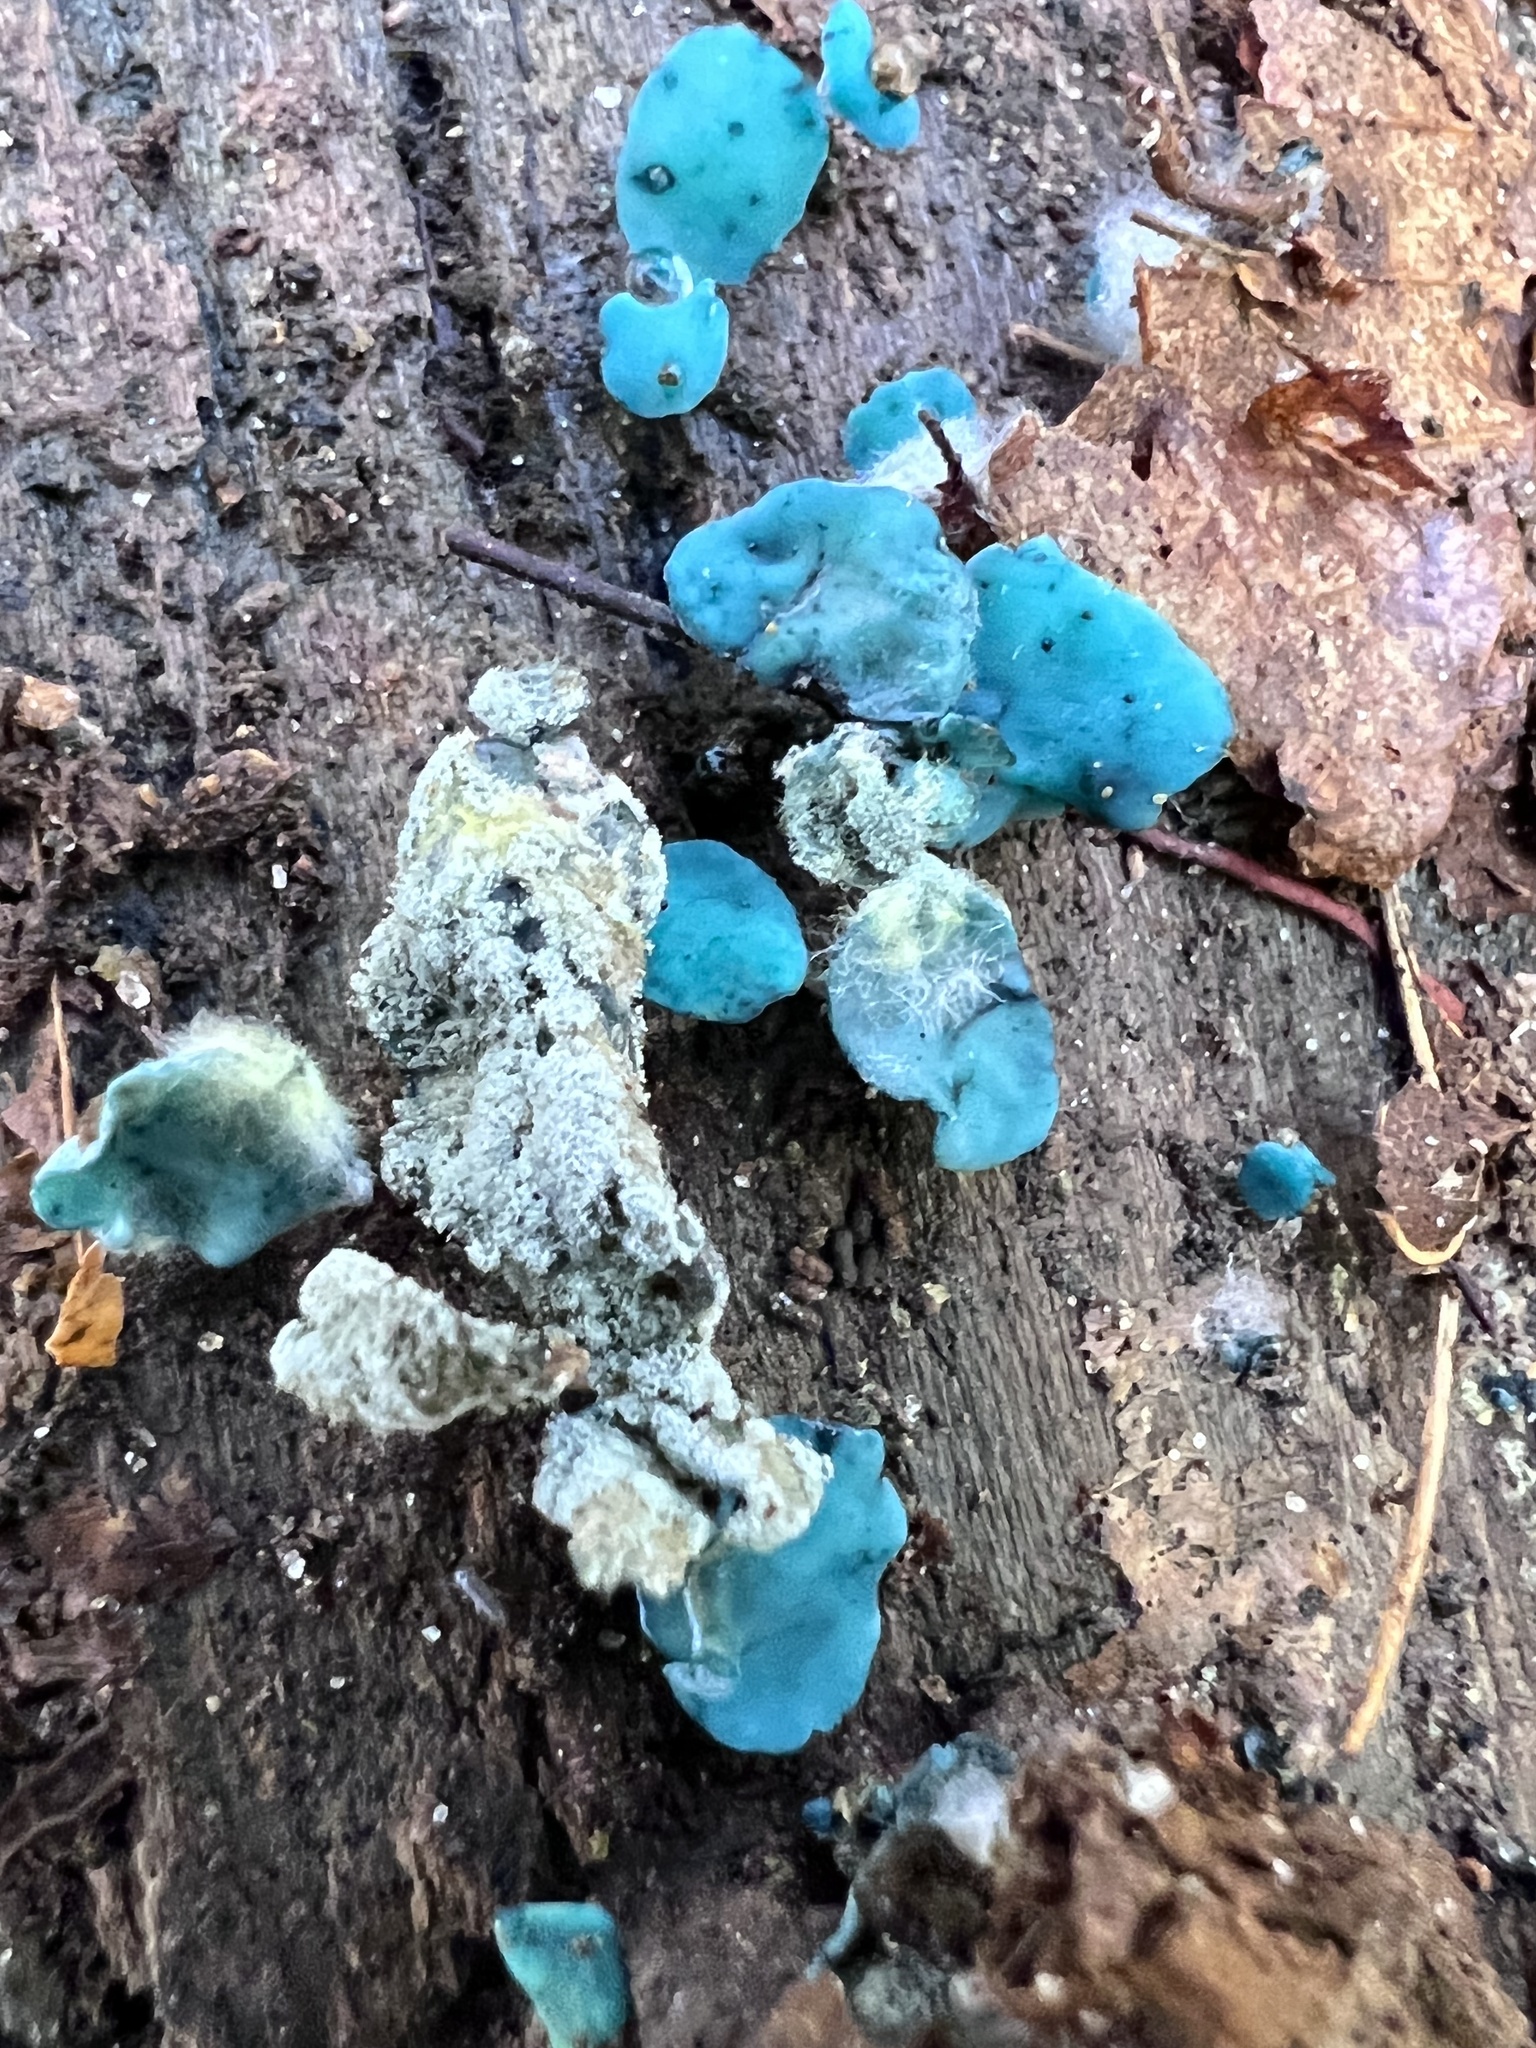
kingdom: Fungi
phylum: Ascomycota
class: Leotiomycetes
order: Helotiales
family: Chlorociboriaceae
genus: Chlorociboria
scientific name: Chlorociboria aeruginascens
